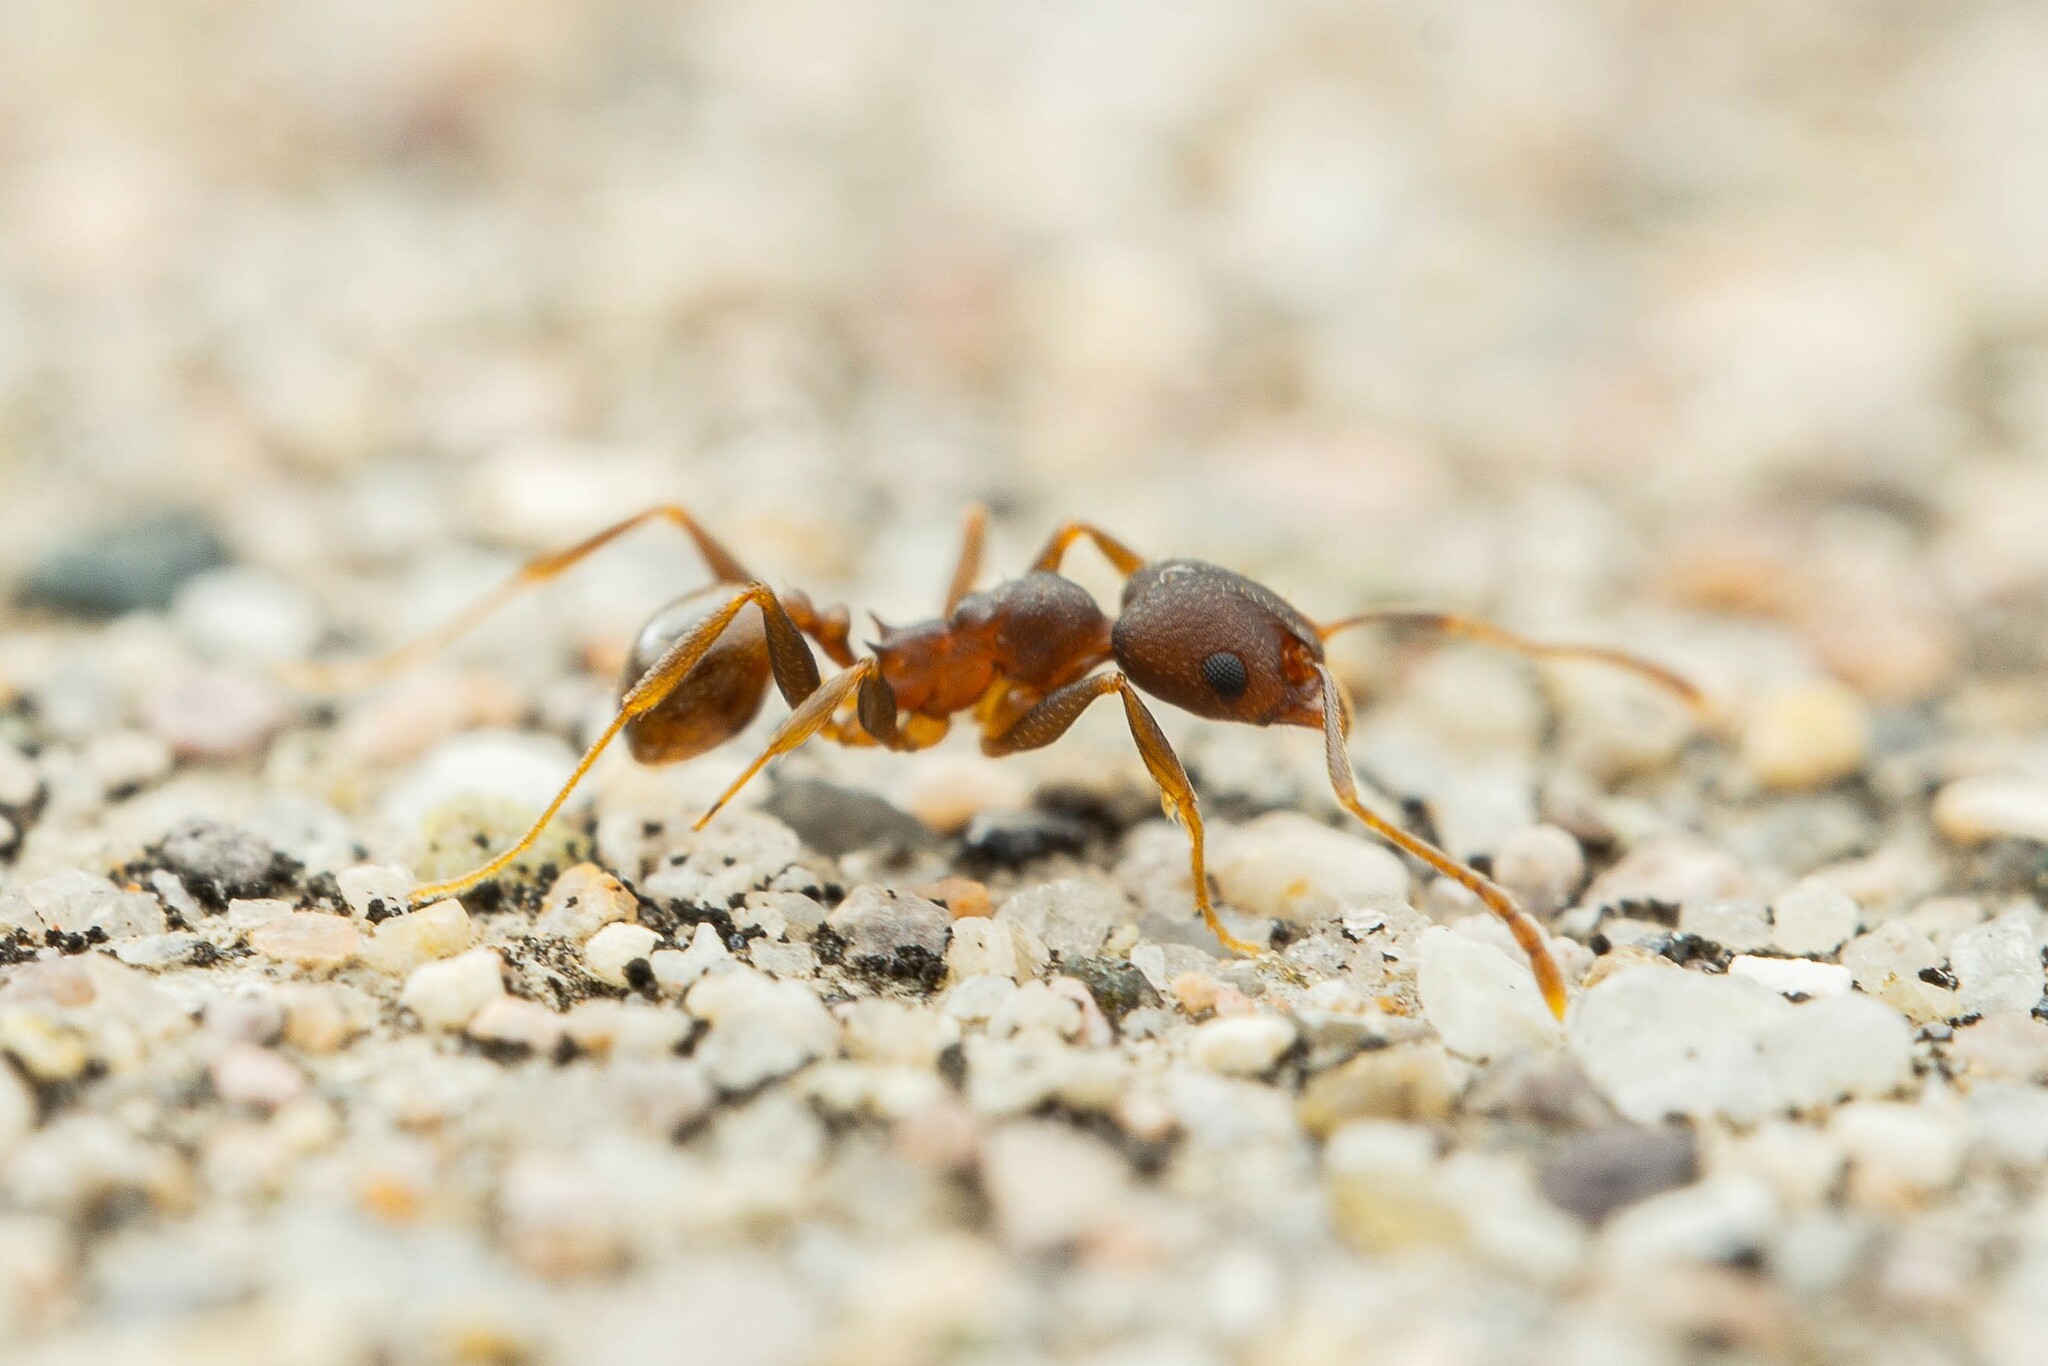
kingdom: Animalia
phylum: Arthropoda
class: Insecta
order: Hymenoptera
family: Formicidae
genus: Pheidole
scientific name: Pheidole
